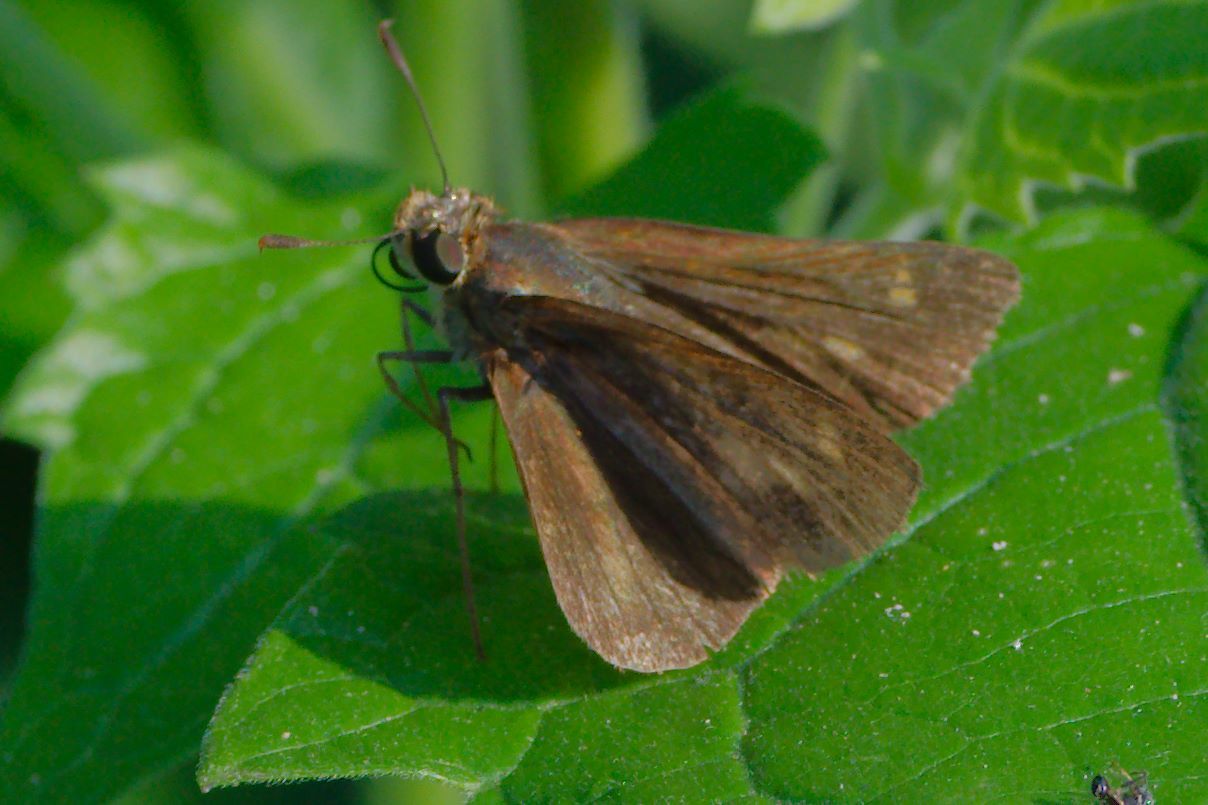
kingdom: Animalia
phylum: Arthropoda
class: Insecta
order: Lepidoptera
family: Hesperiidae
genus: Euphyes
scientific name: Euphyes vestris
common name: Dun skipper
